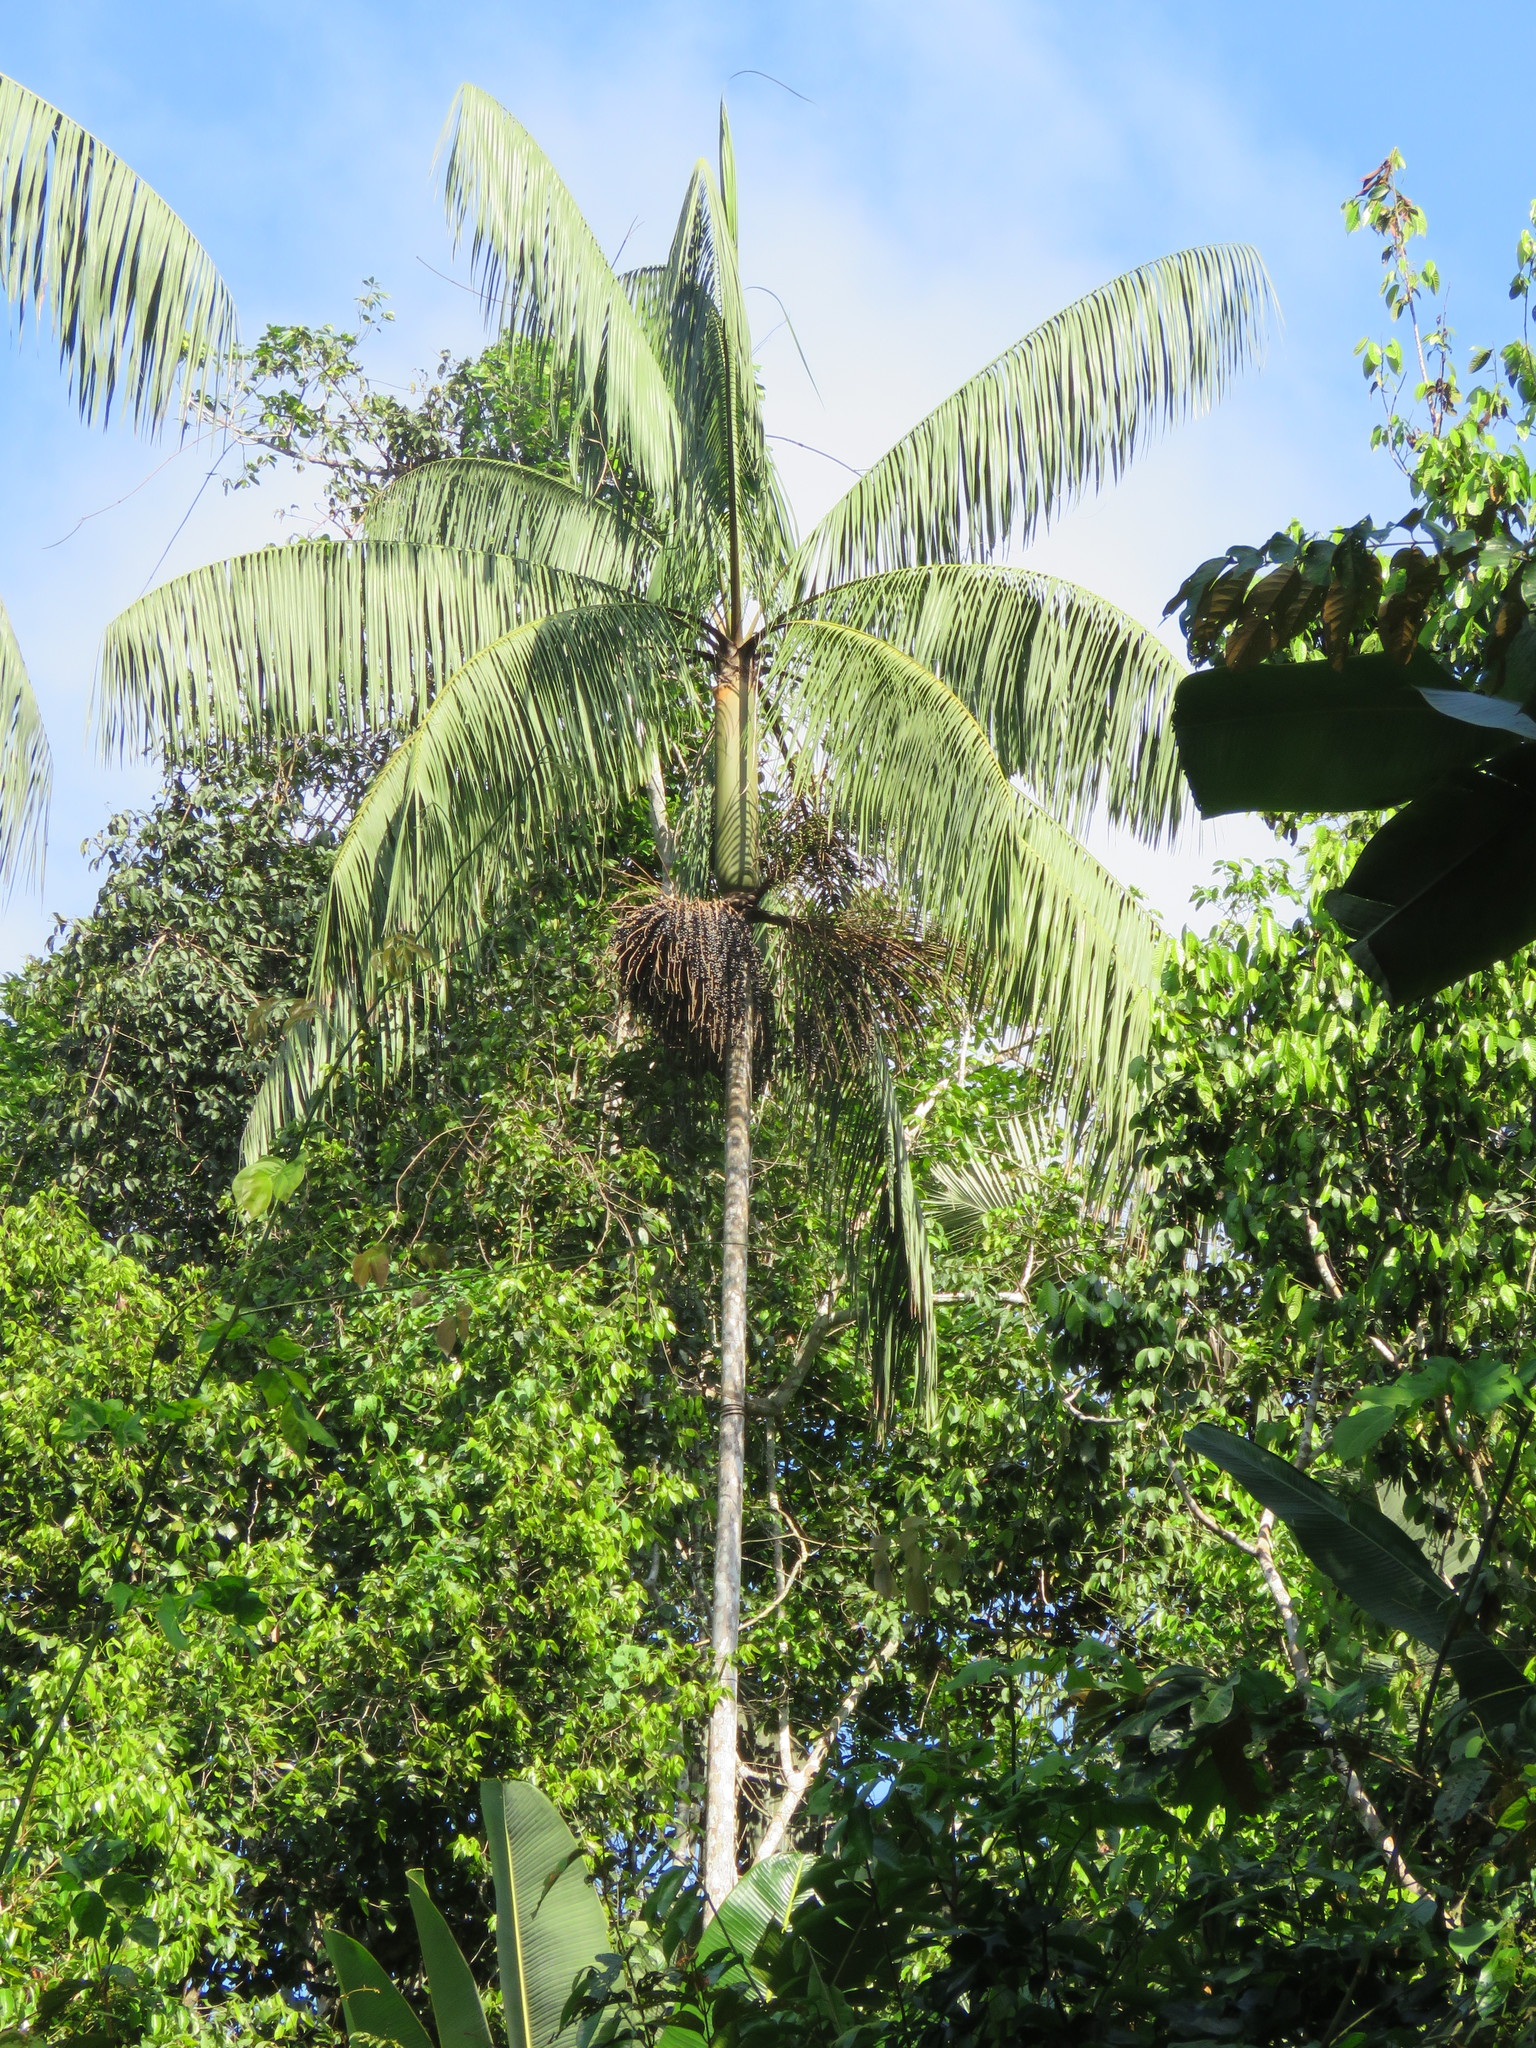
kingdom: Plantae
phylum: Tracheophyta
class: Liliopsida
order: Arecales
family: Arecaceae
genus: Euterpe
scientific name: Euterpe precatoria
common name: Mountain-cabbage
